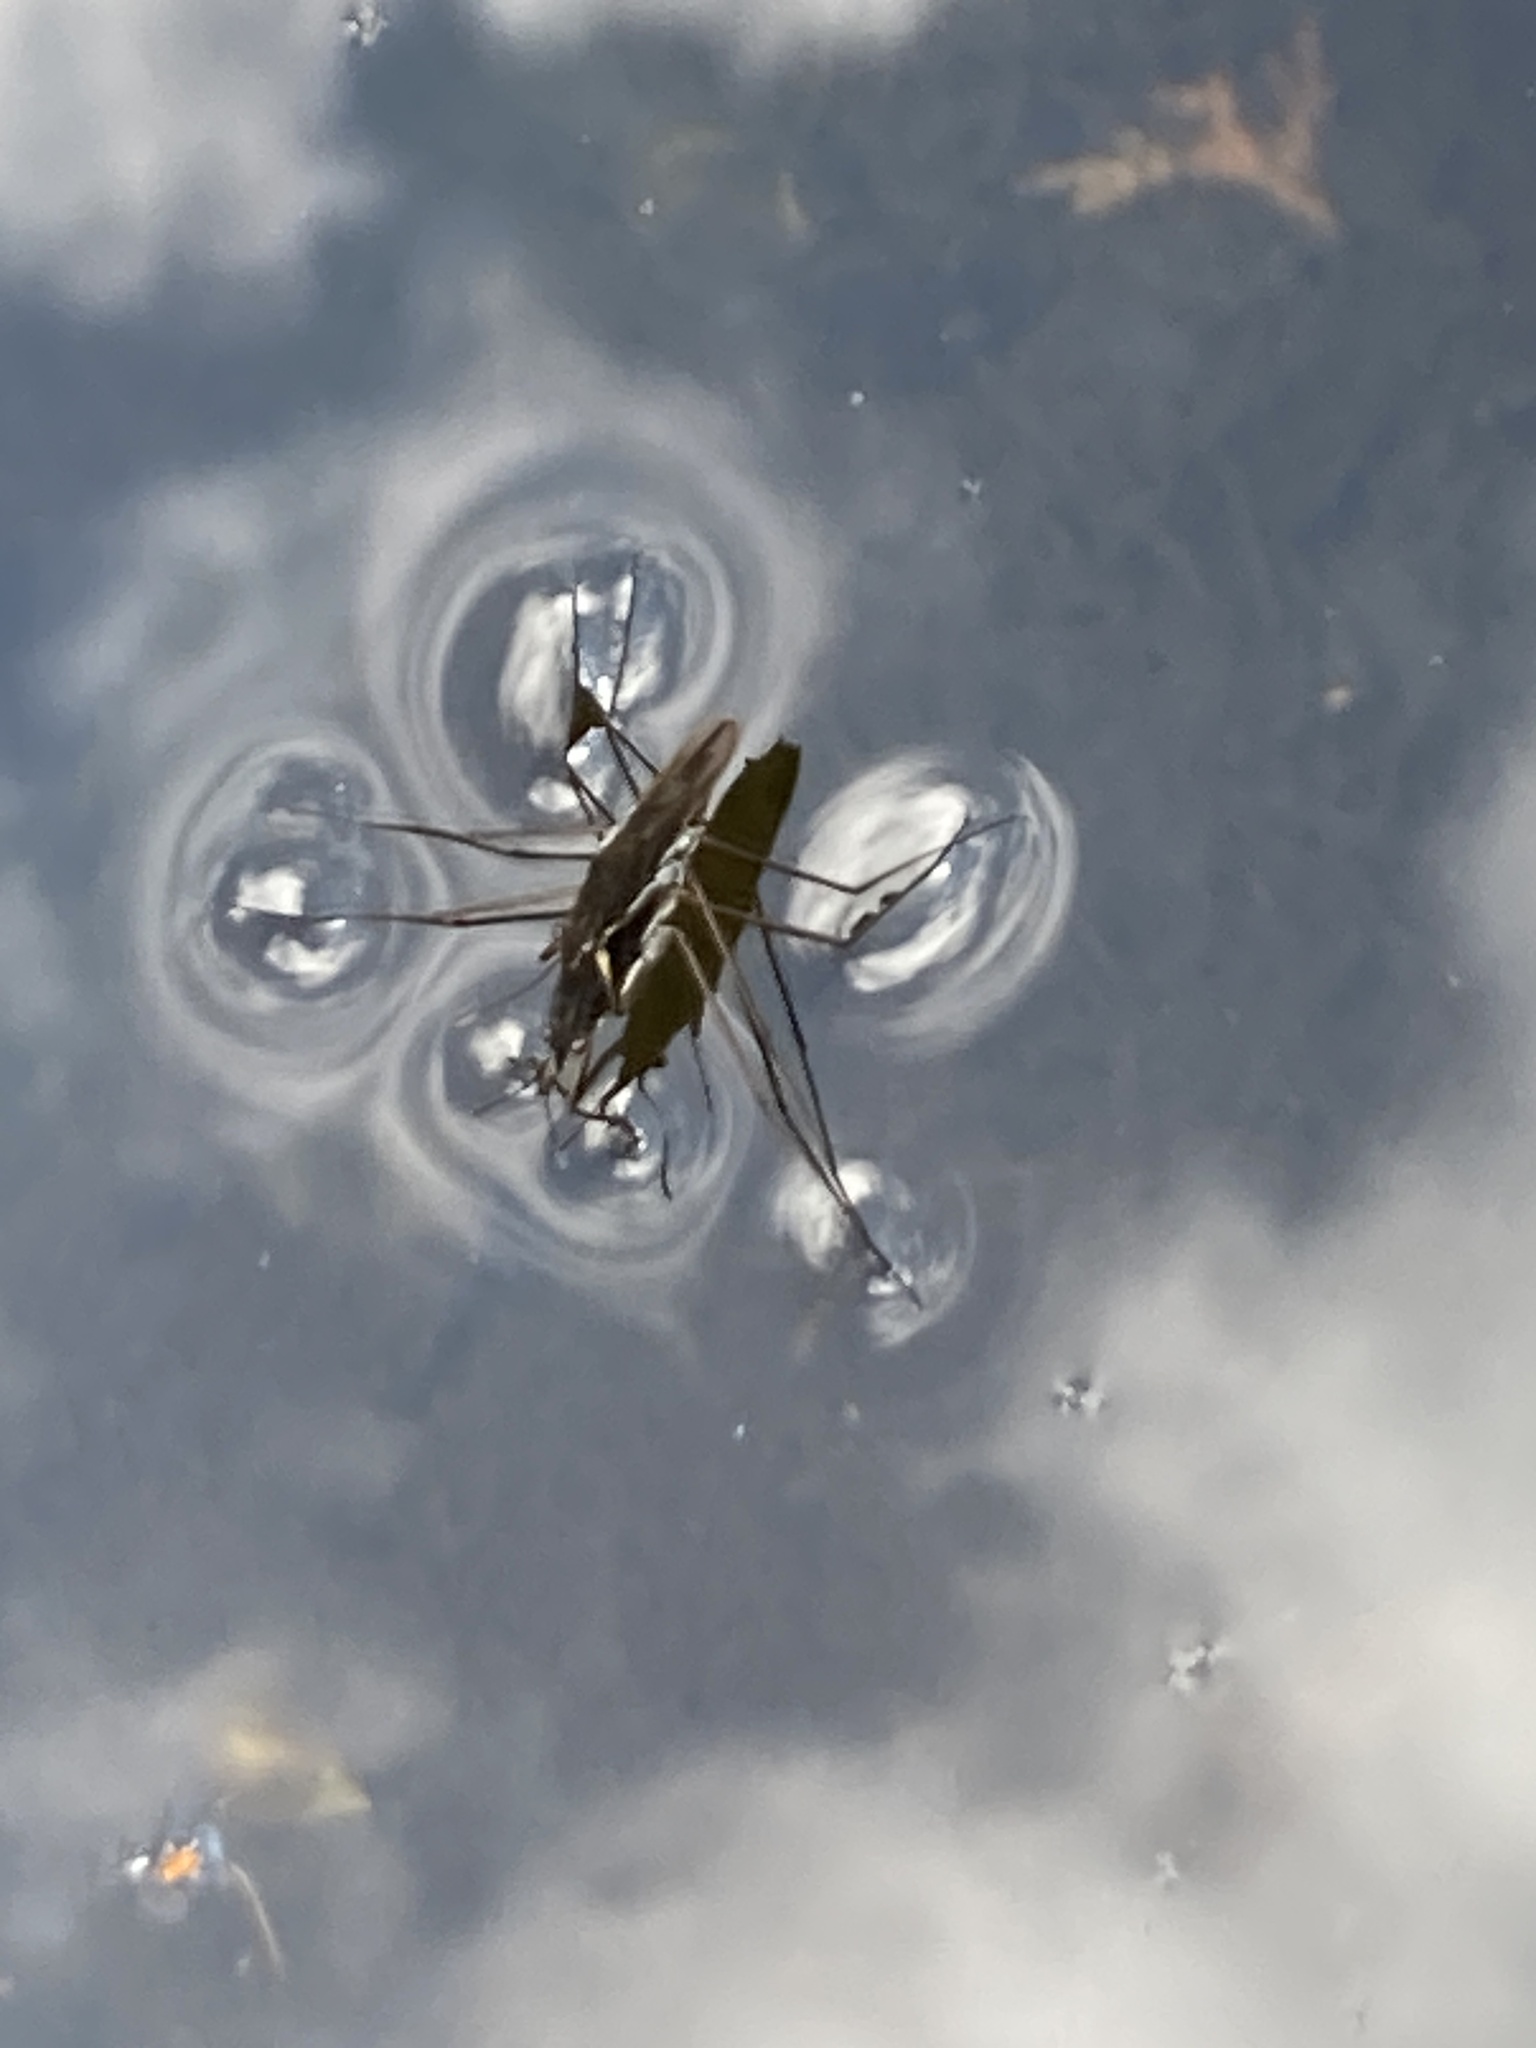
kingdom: Animalia
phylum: Arthropoda
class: Insecta
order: Hemiptera
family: Gerridae
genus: Gerris
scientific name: Gerris
